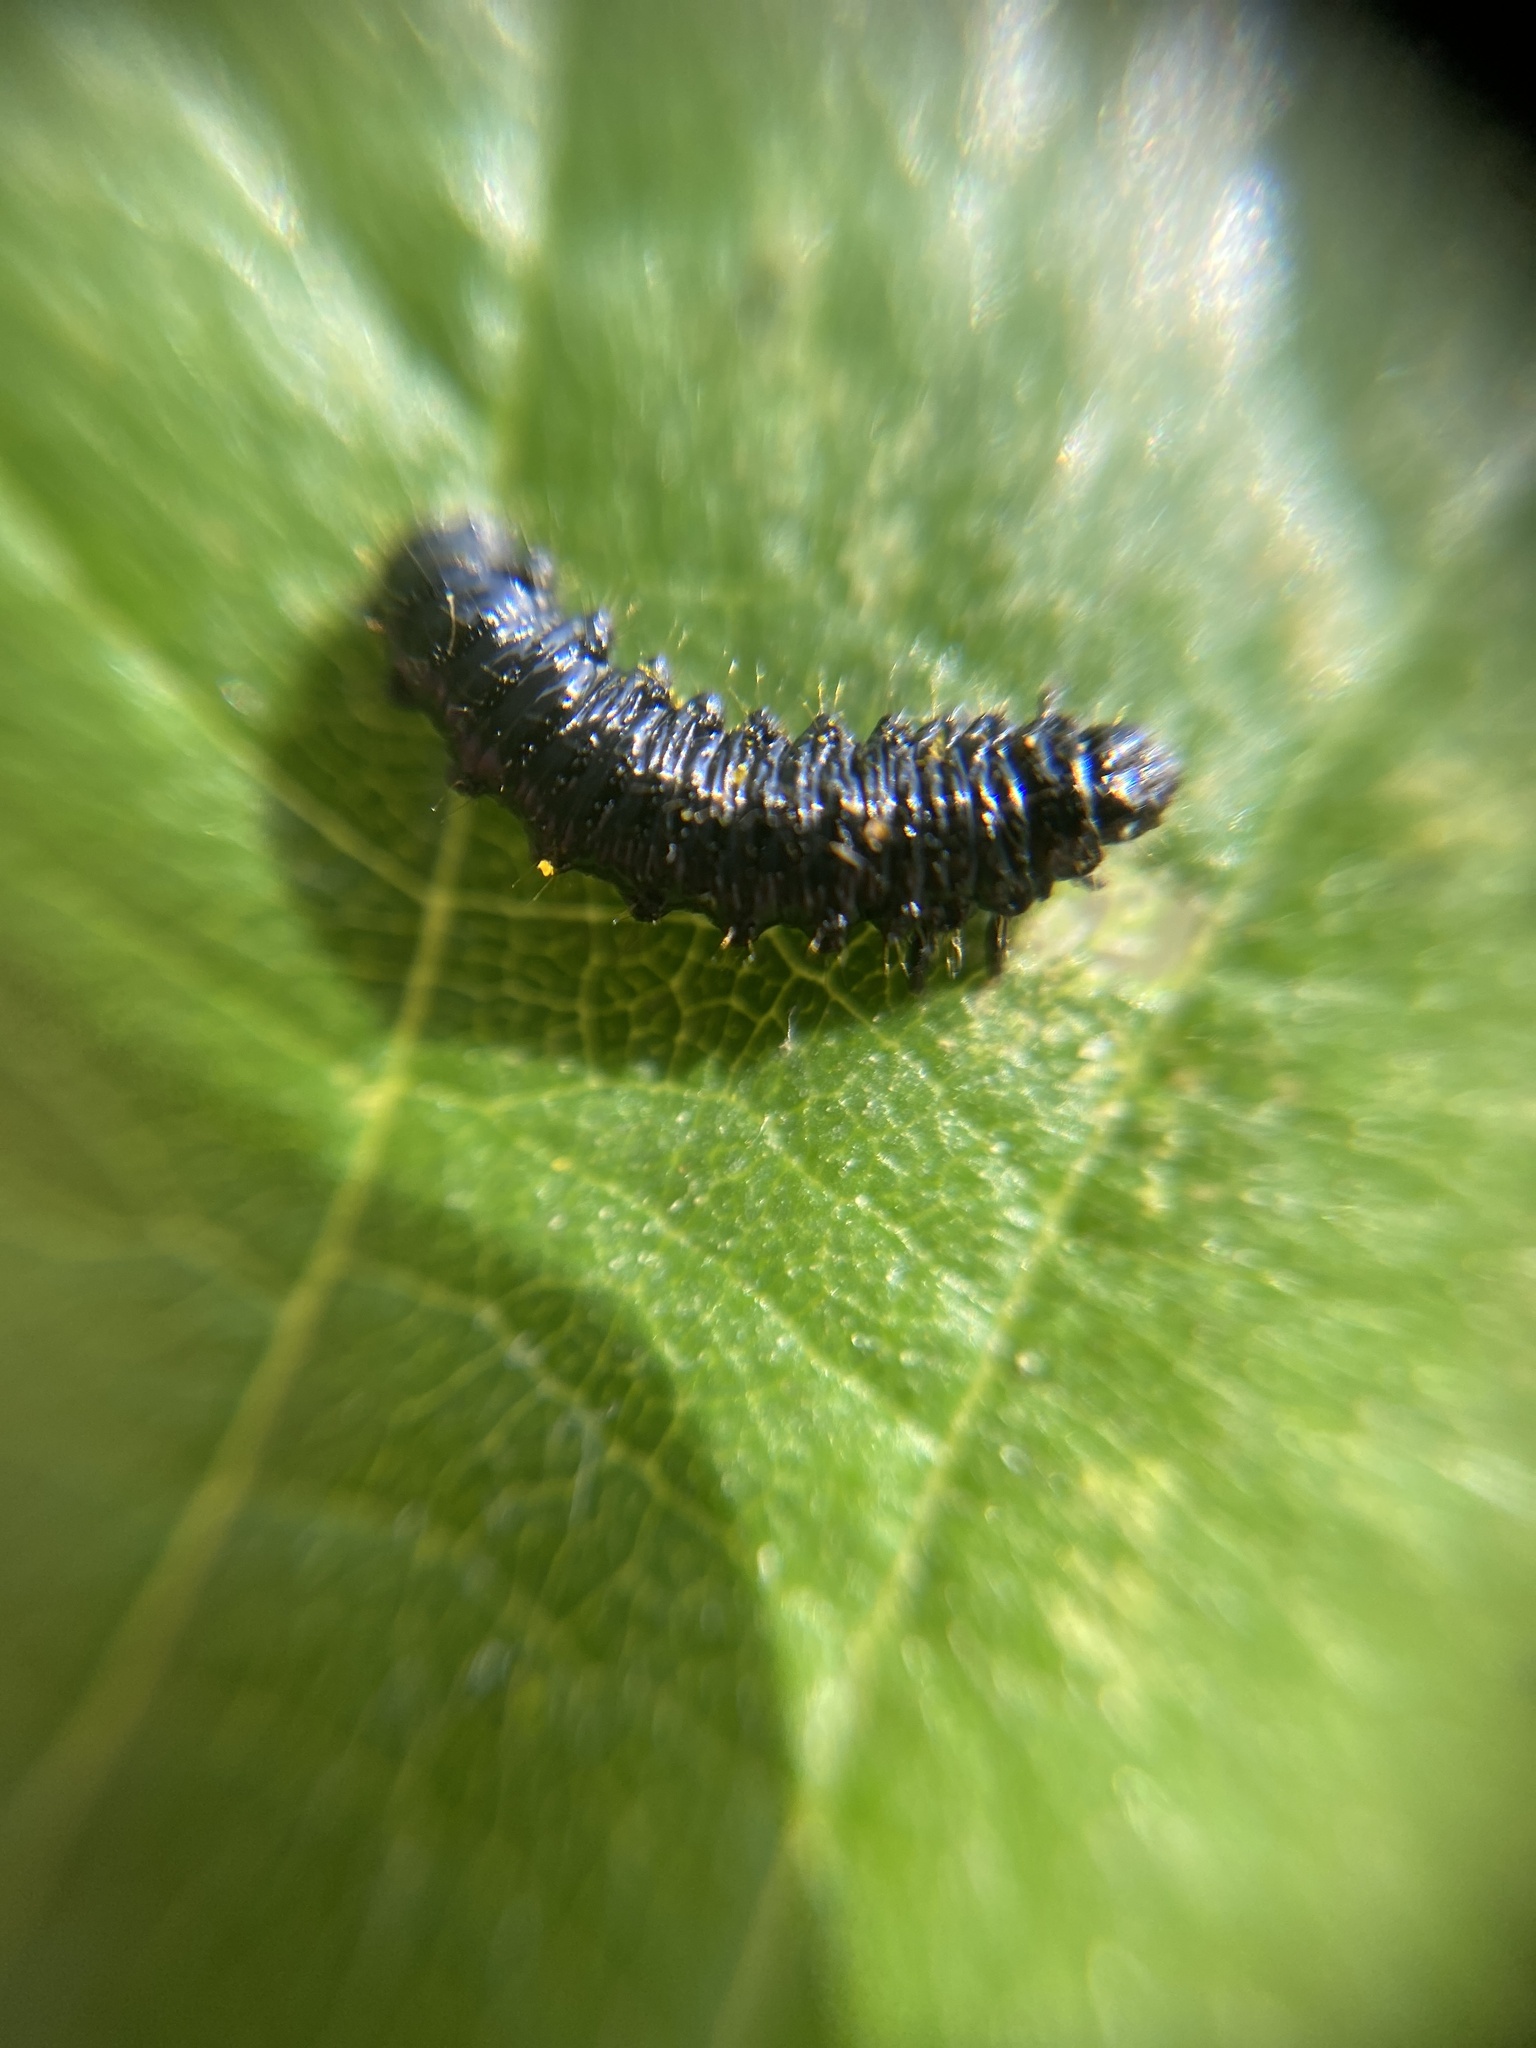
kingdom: Animalia
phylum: Arthropoda
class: Insecta
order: Coleoptera
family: Chrysomelidae
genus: Agelastica
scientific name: Agelastica alni
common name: Alder leaf beetle
